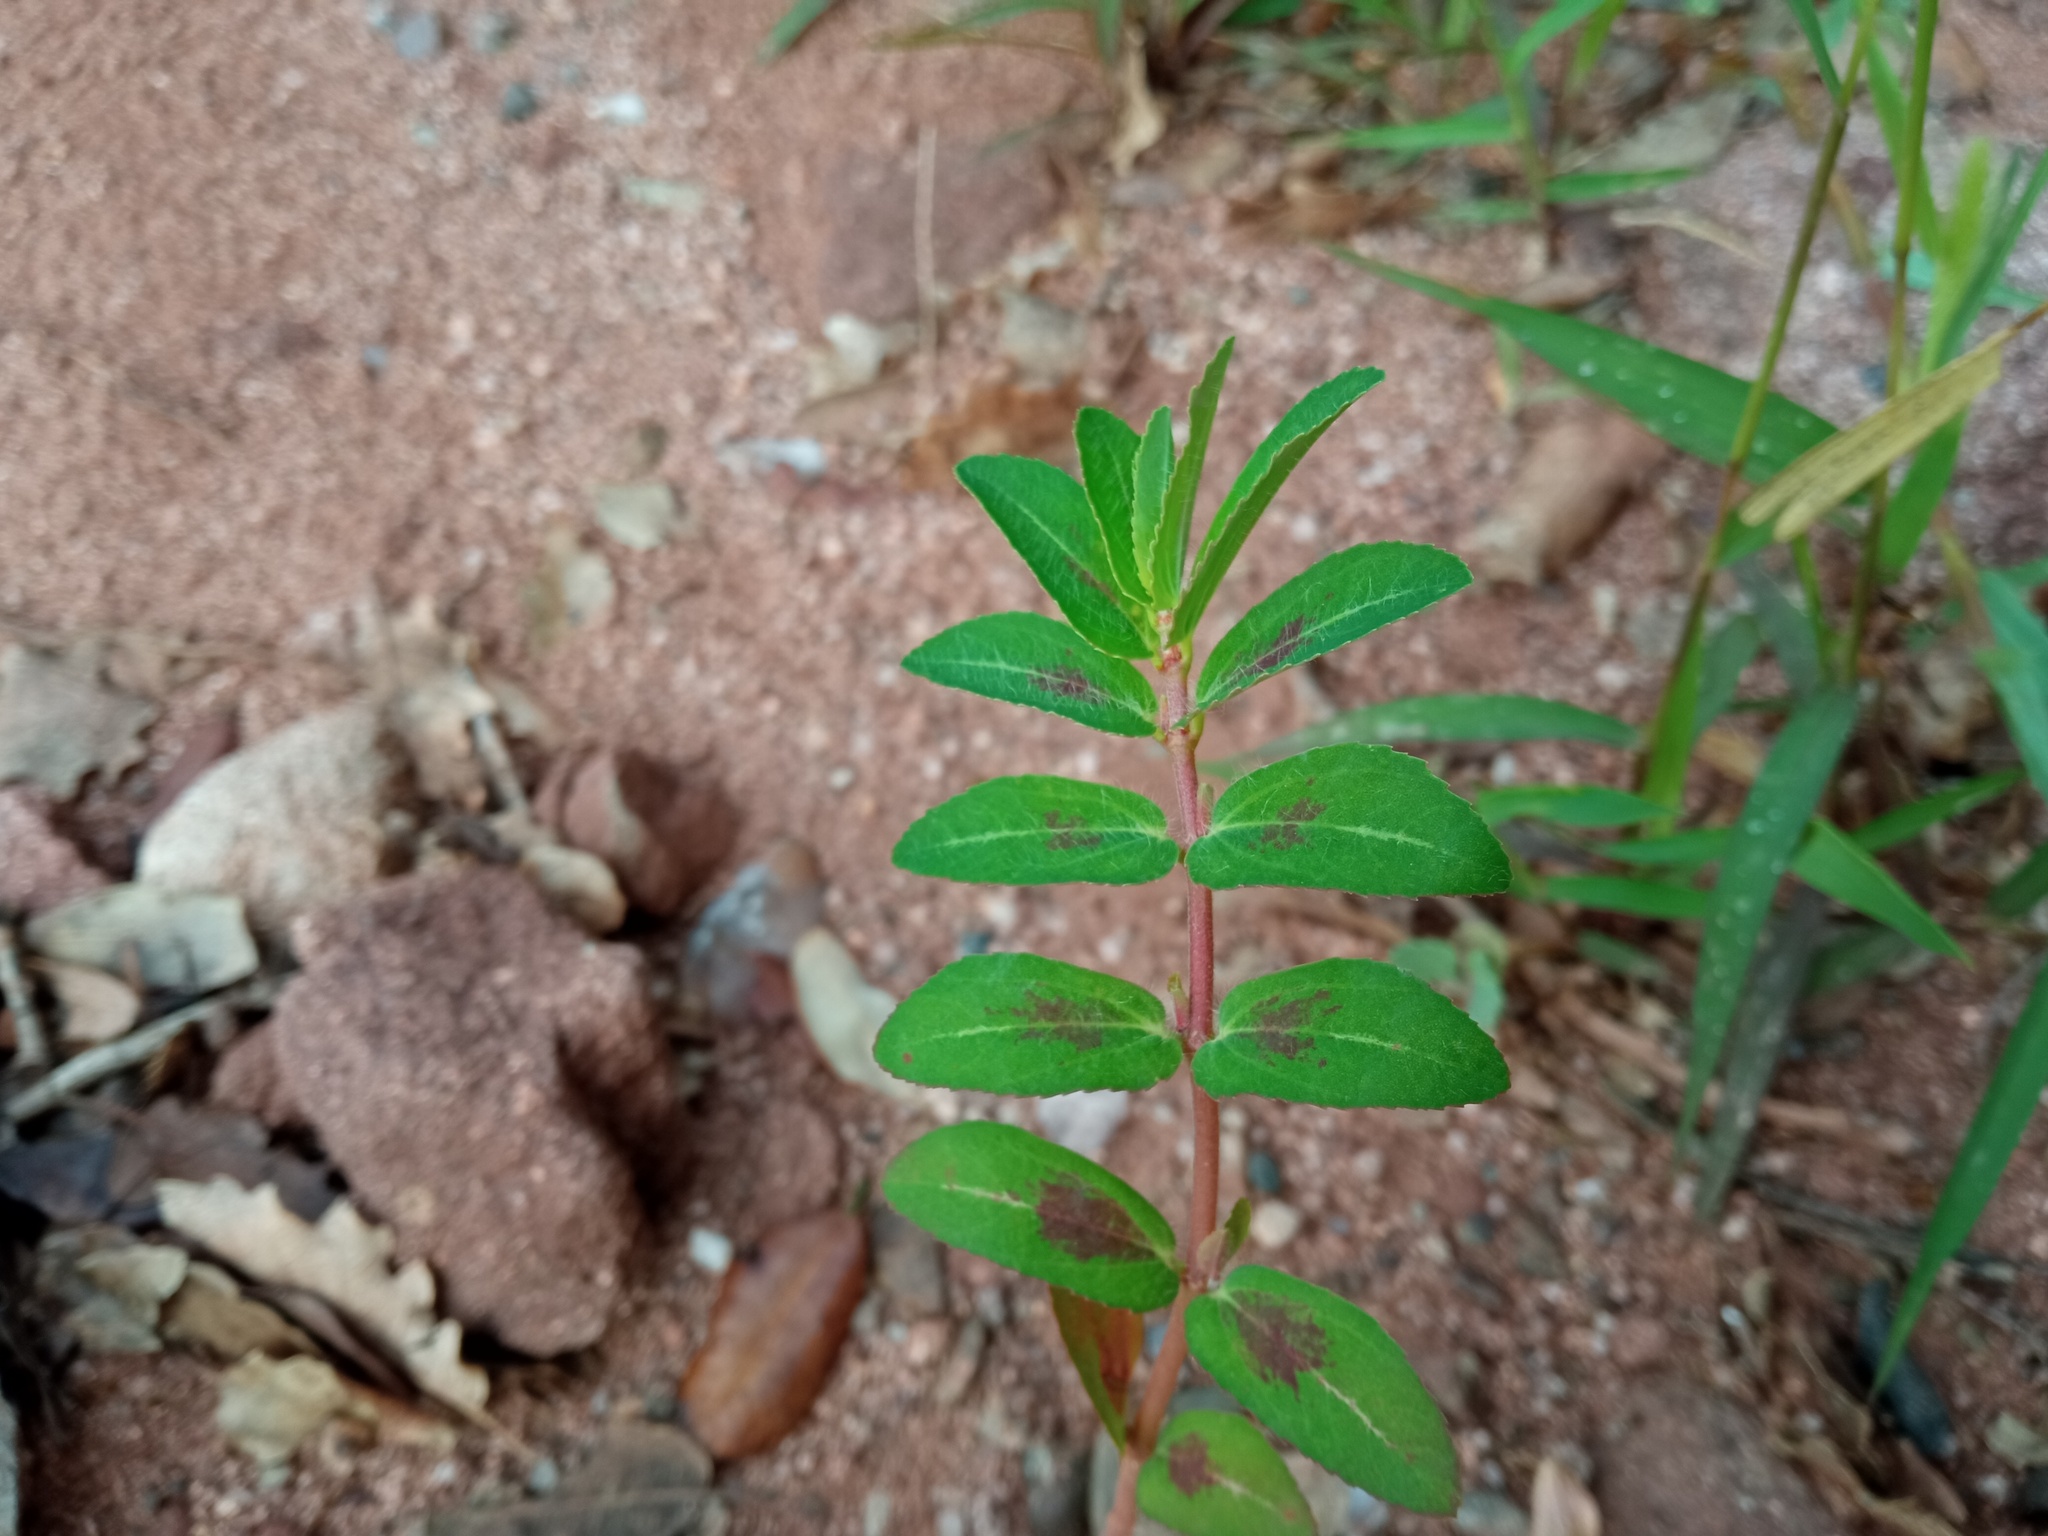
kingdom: Plantae
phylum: Tracheophyta
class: Magnoliopsida
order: Malpighiales
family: Euphorbiaceae
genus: Euphorbia
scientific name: Euphorbia nutans
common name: Eyebane
